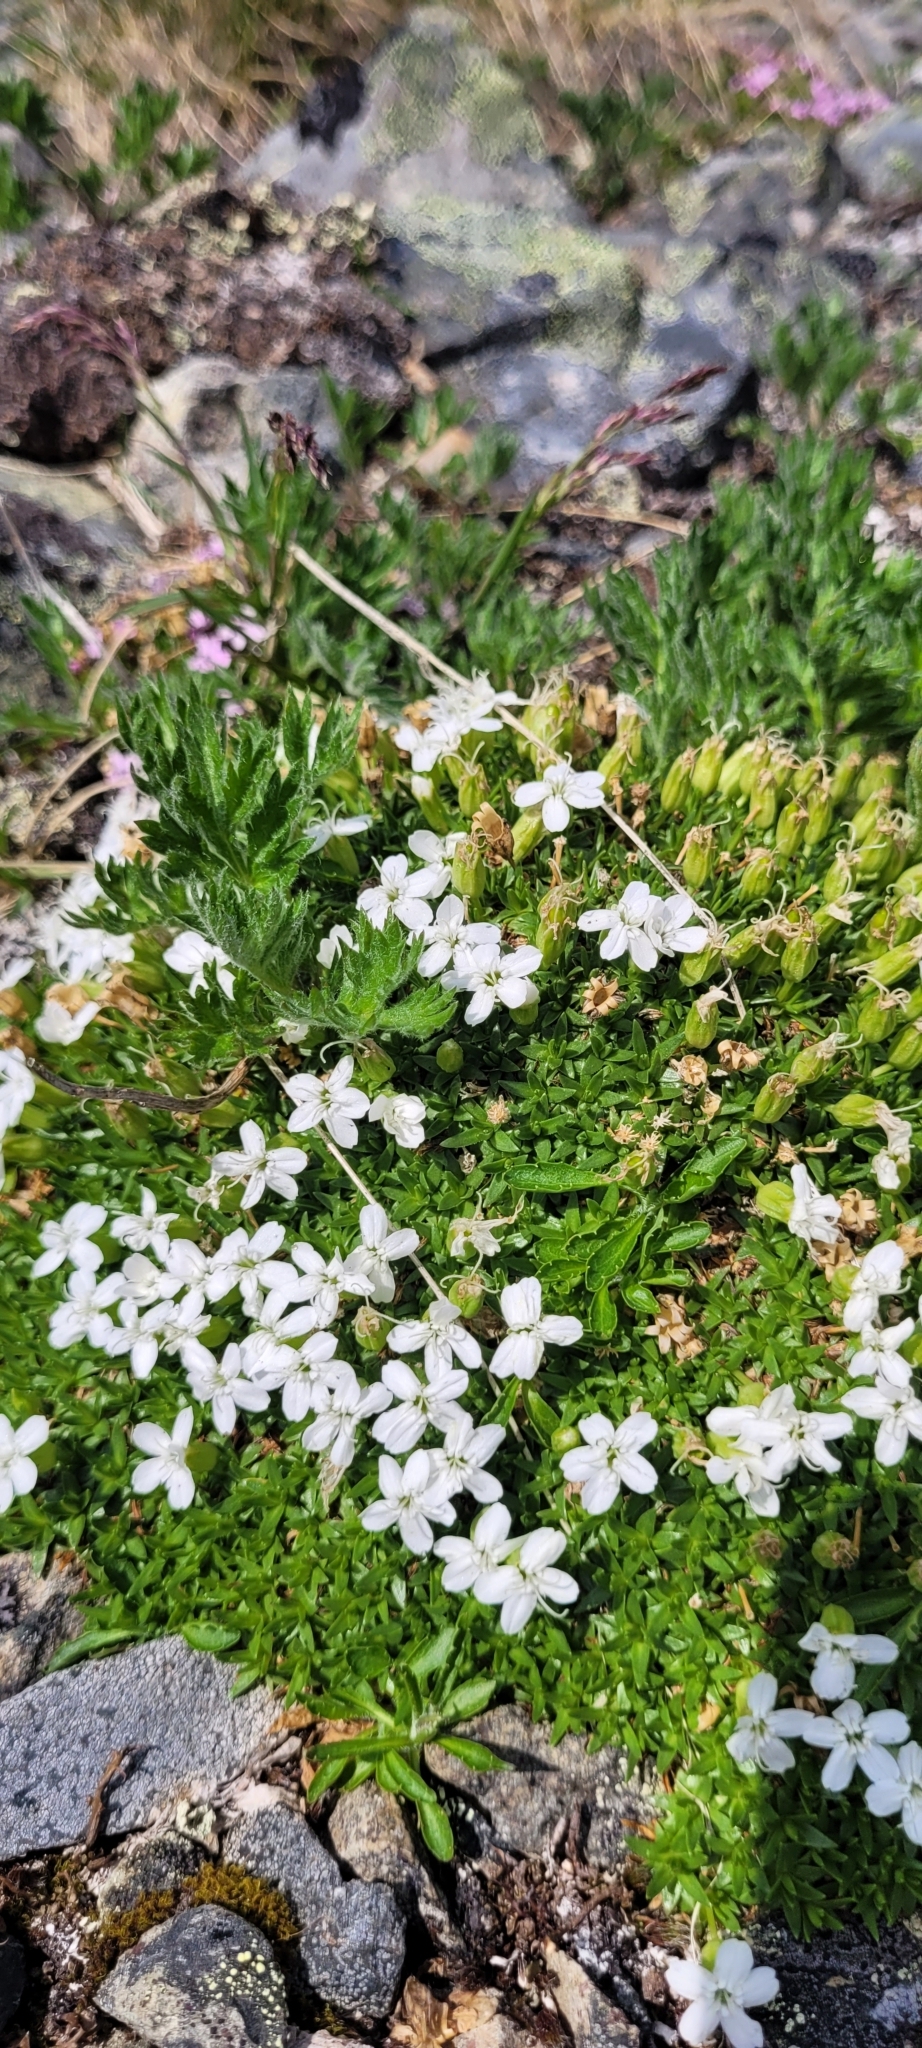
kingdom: Plantae
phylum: Tracheophyta
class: Magnoliopsida
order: Caryophyllales
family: Caryophyllaceae
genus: Silene
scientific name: Silene acaulis
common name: Moss campion
